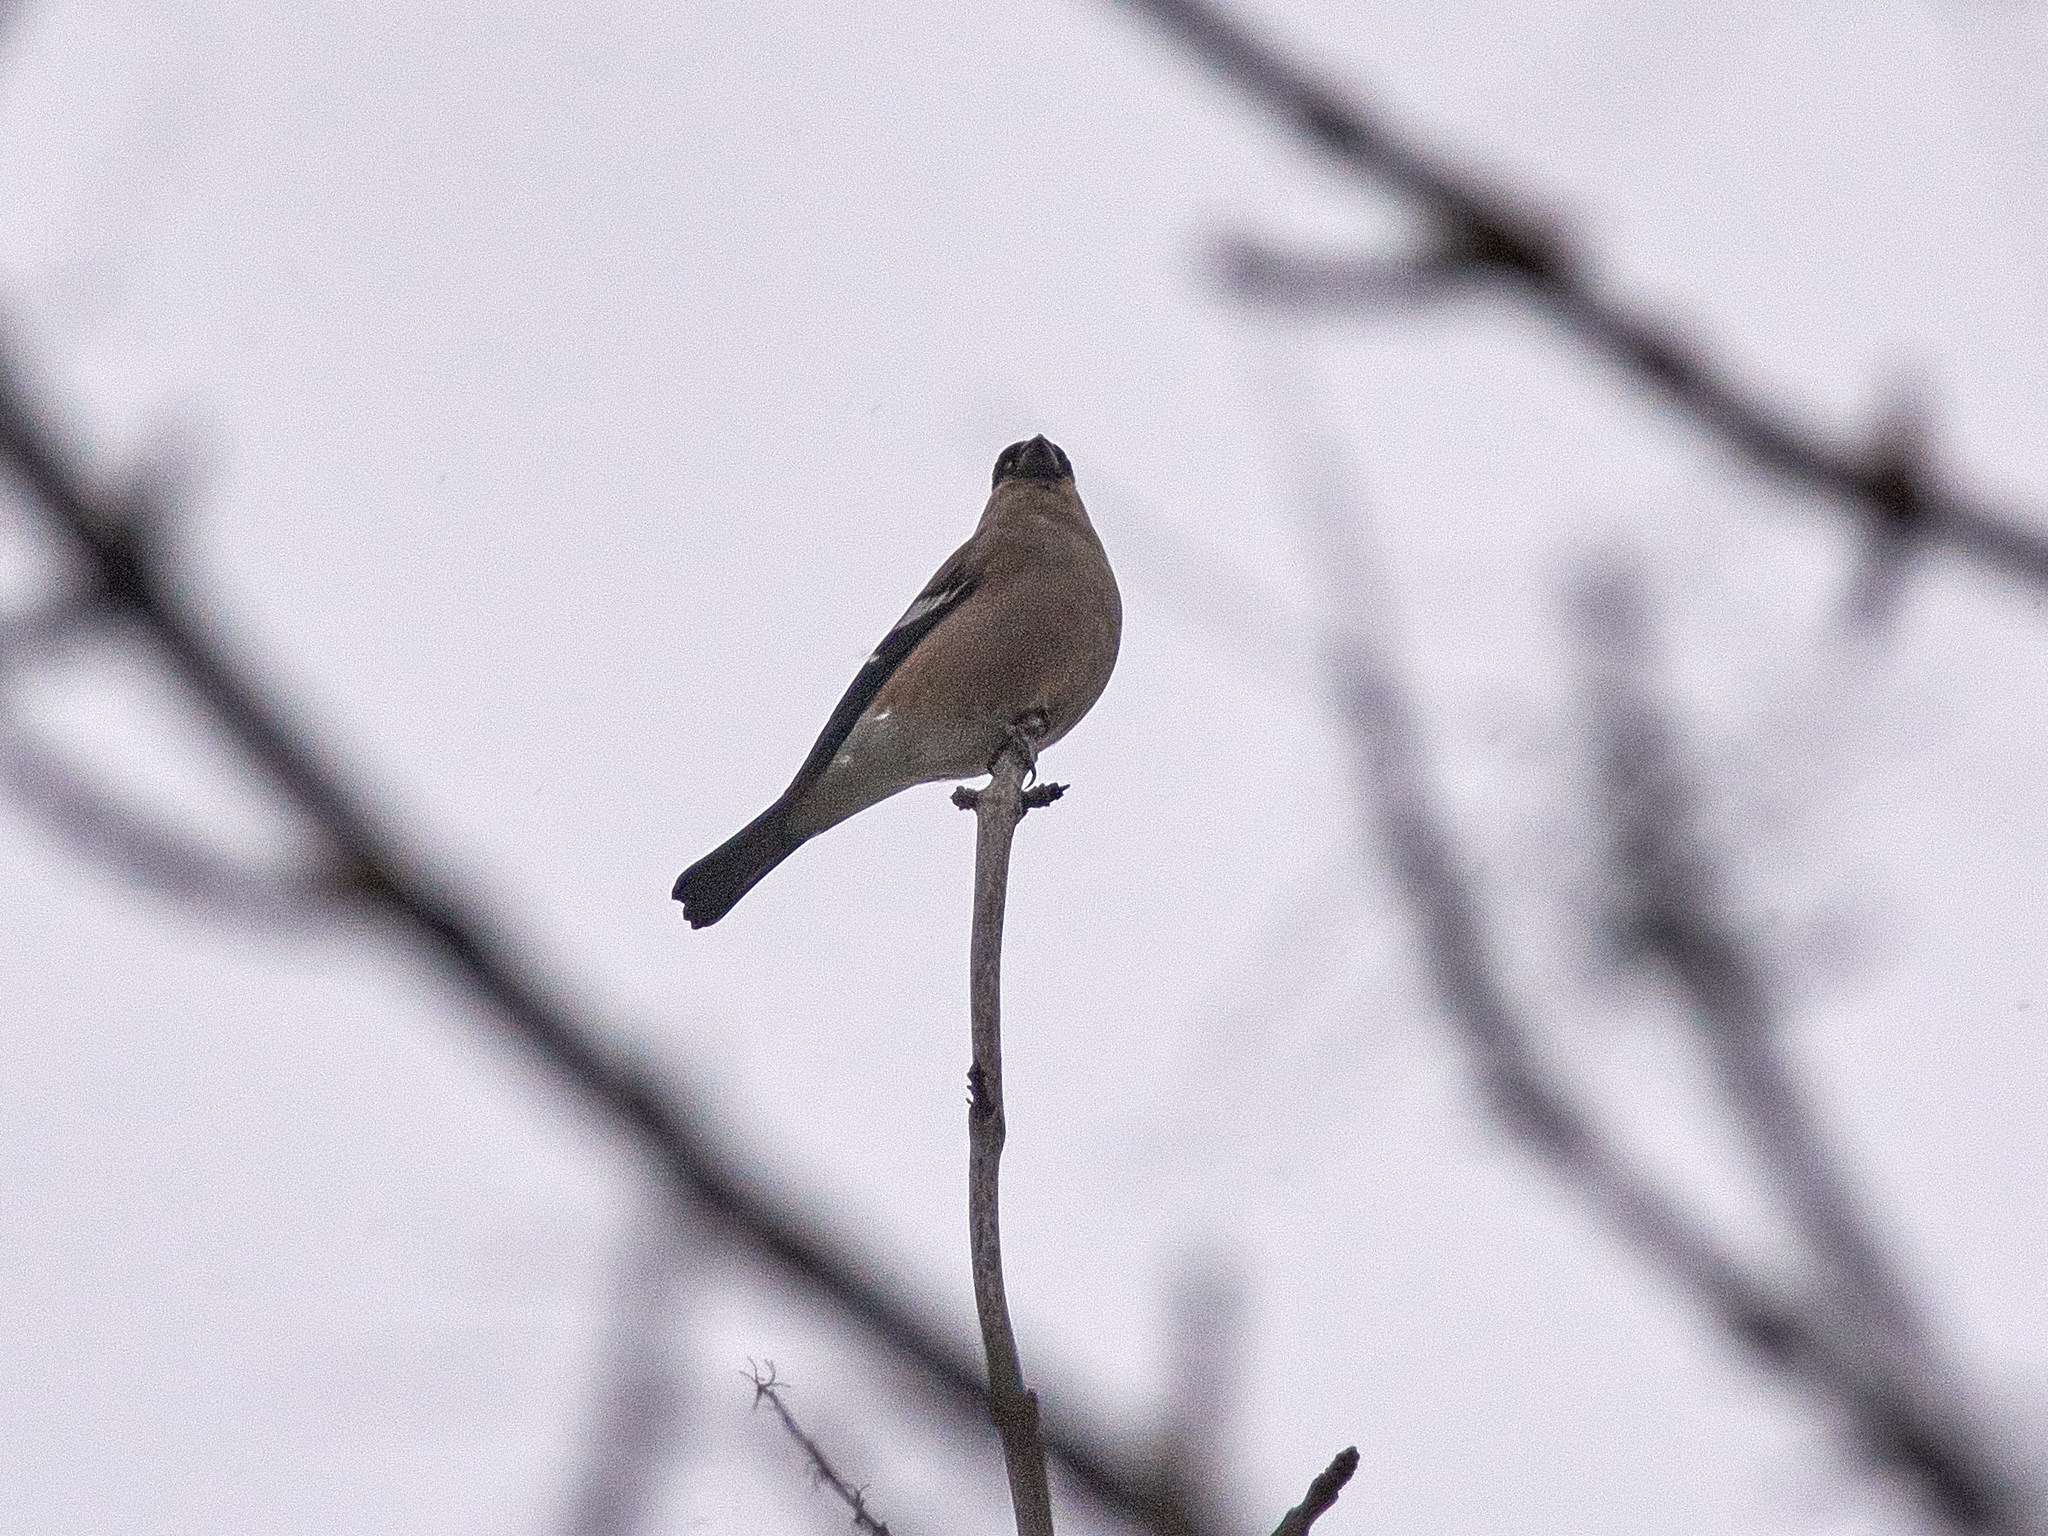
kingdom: Animalia
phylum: Chordata
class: Aves
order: Passeriformes
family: Fringillidae
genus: Pyrrhula
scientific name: Pyrrhula pyrrhula
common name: Eurasian bullfinch
